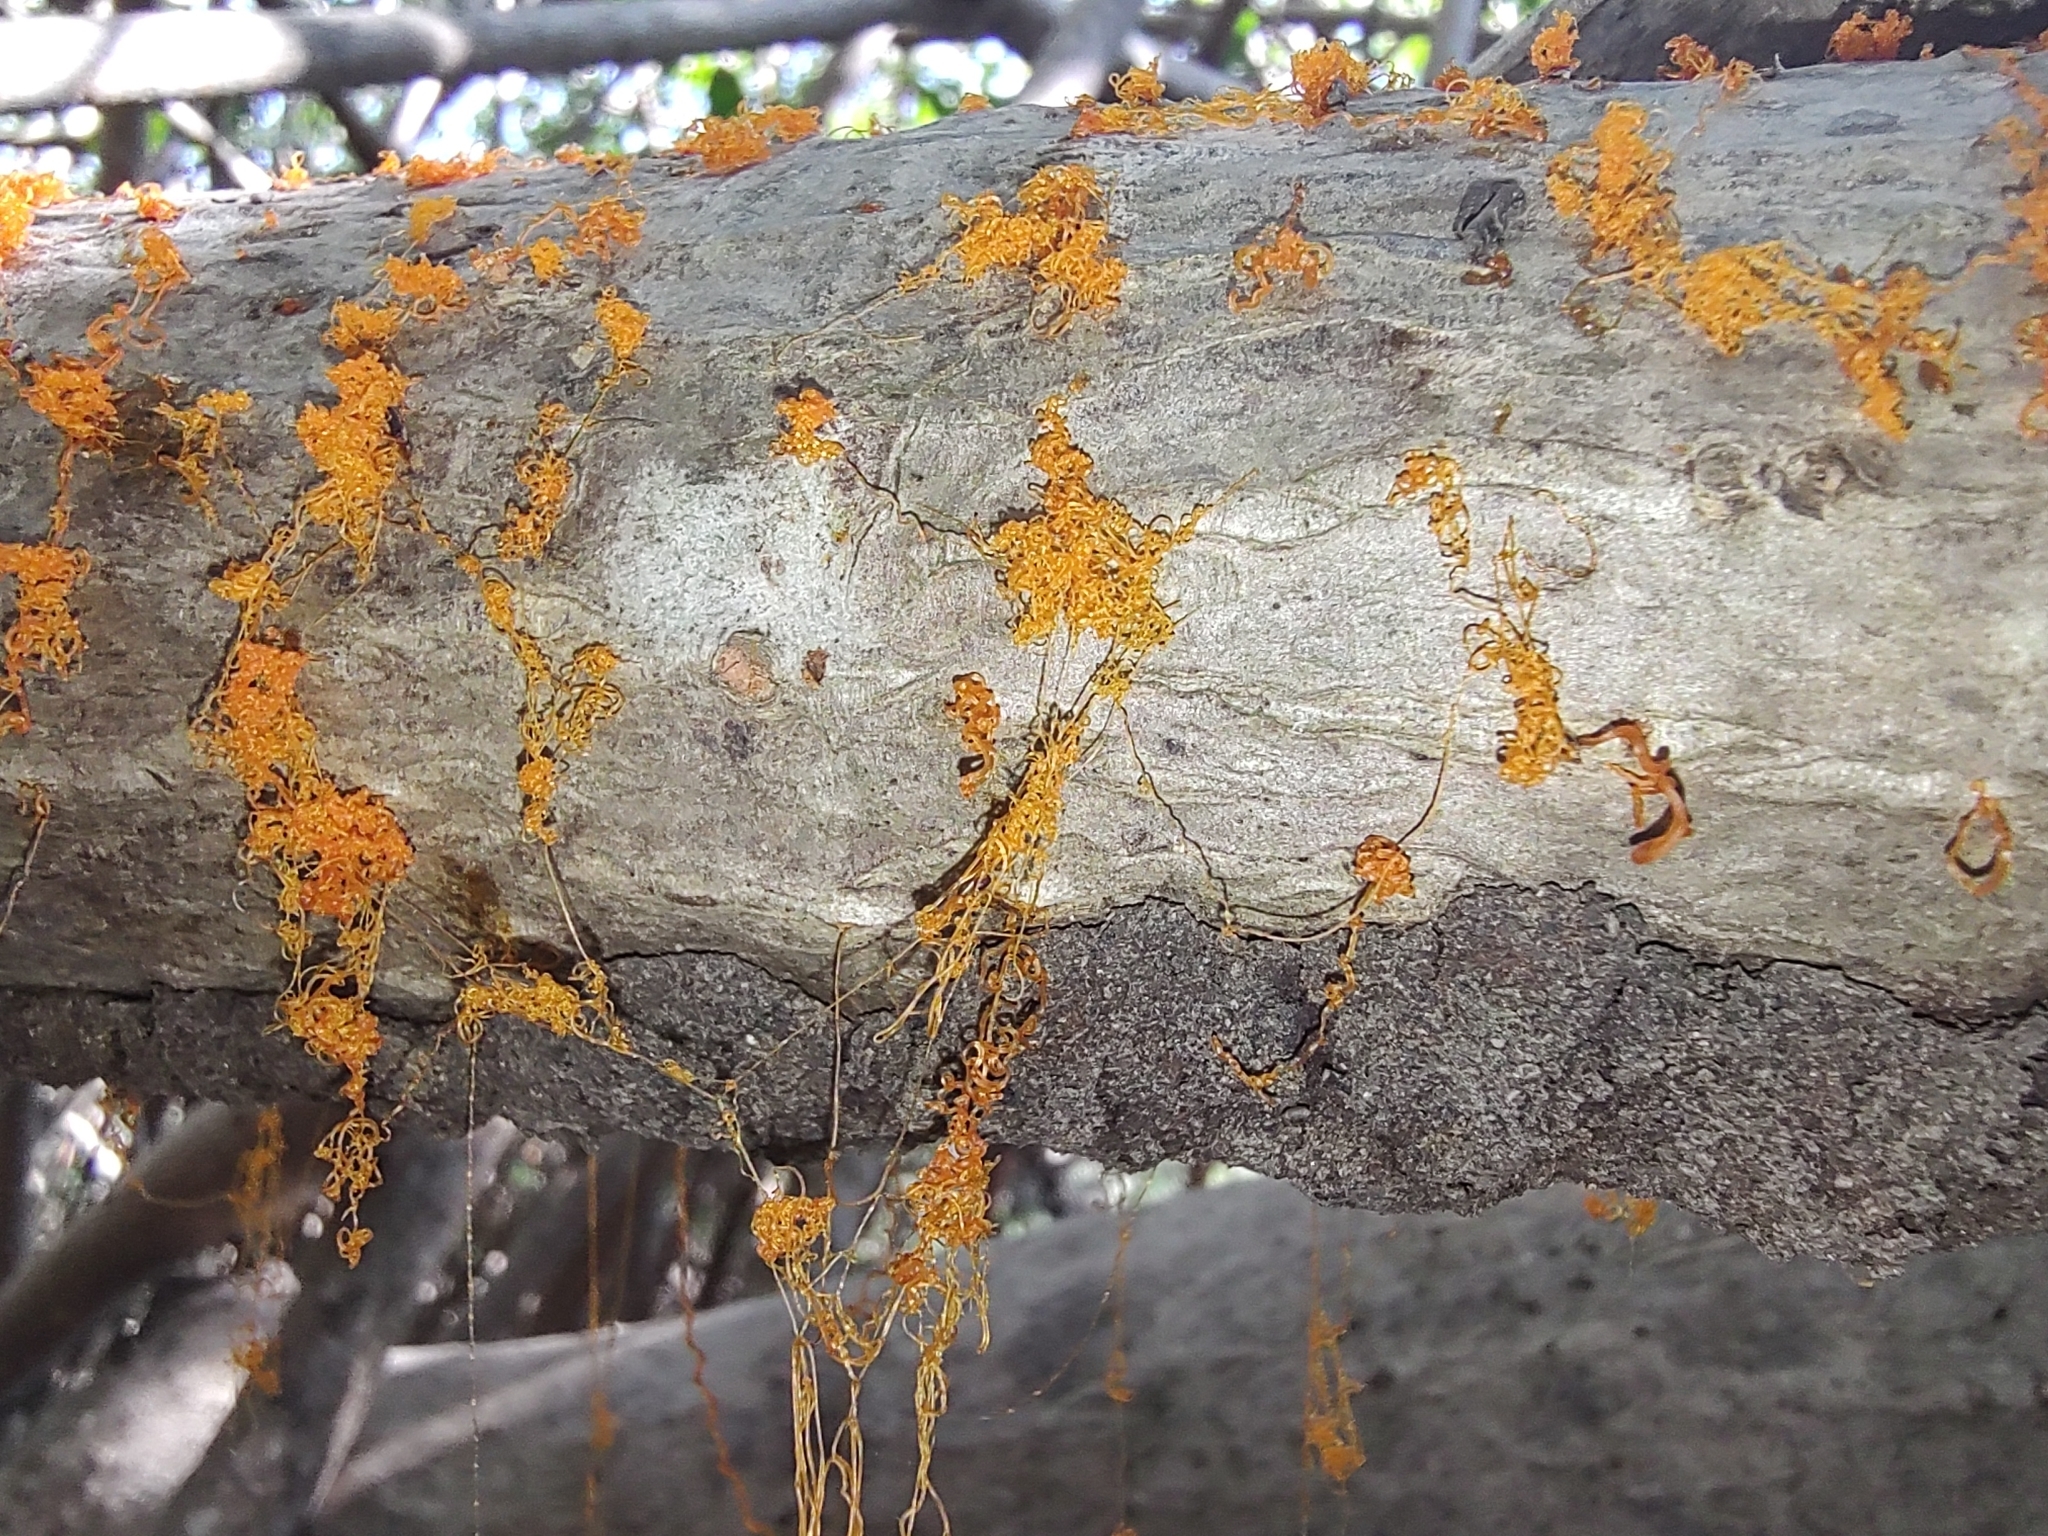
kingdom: Fungi
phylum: Ascomycota
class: Sordariomycetes
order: Xylariales
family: Diatrypaceae
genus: Eutypella
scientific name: Eutypella quaternata
